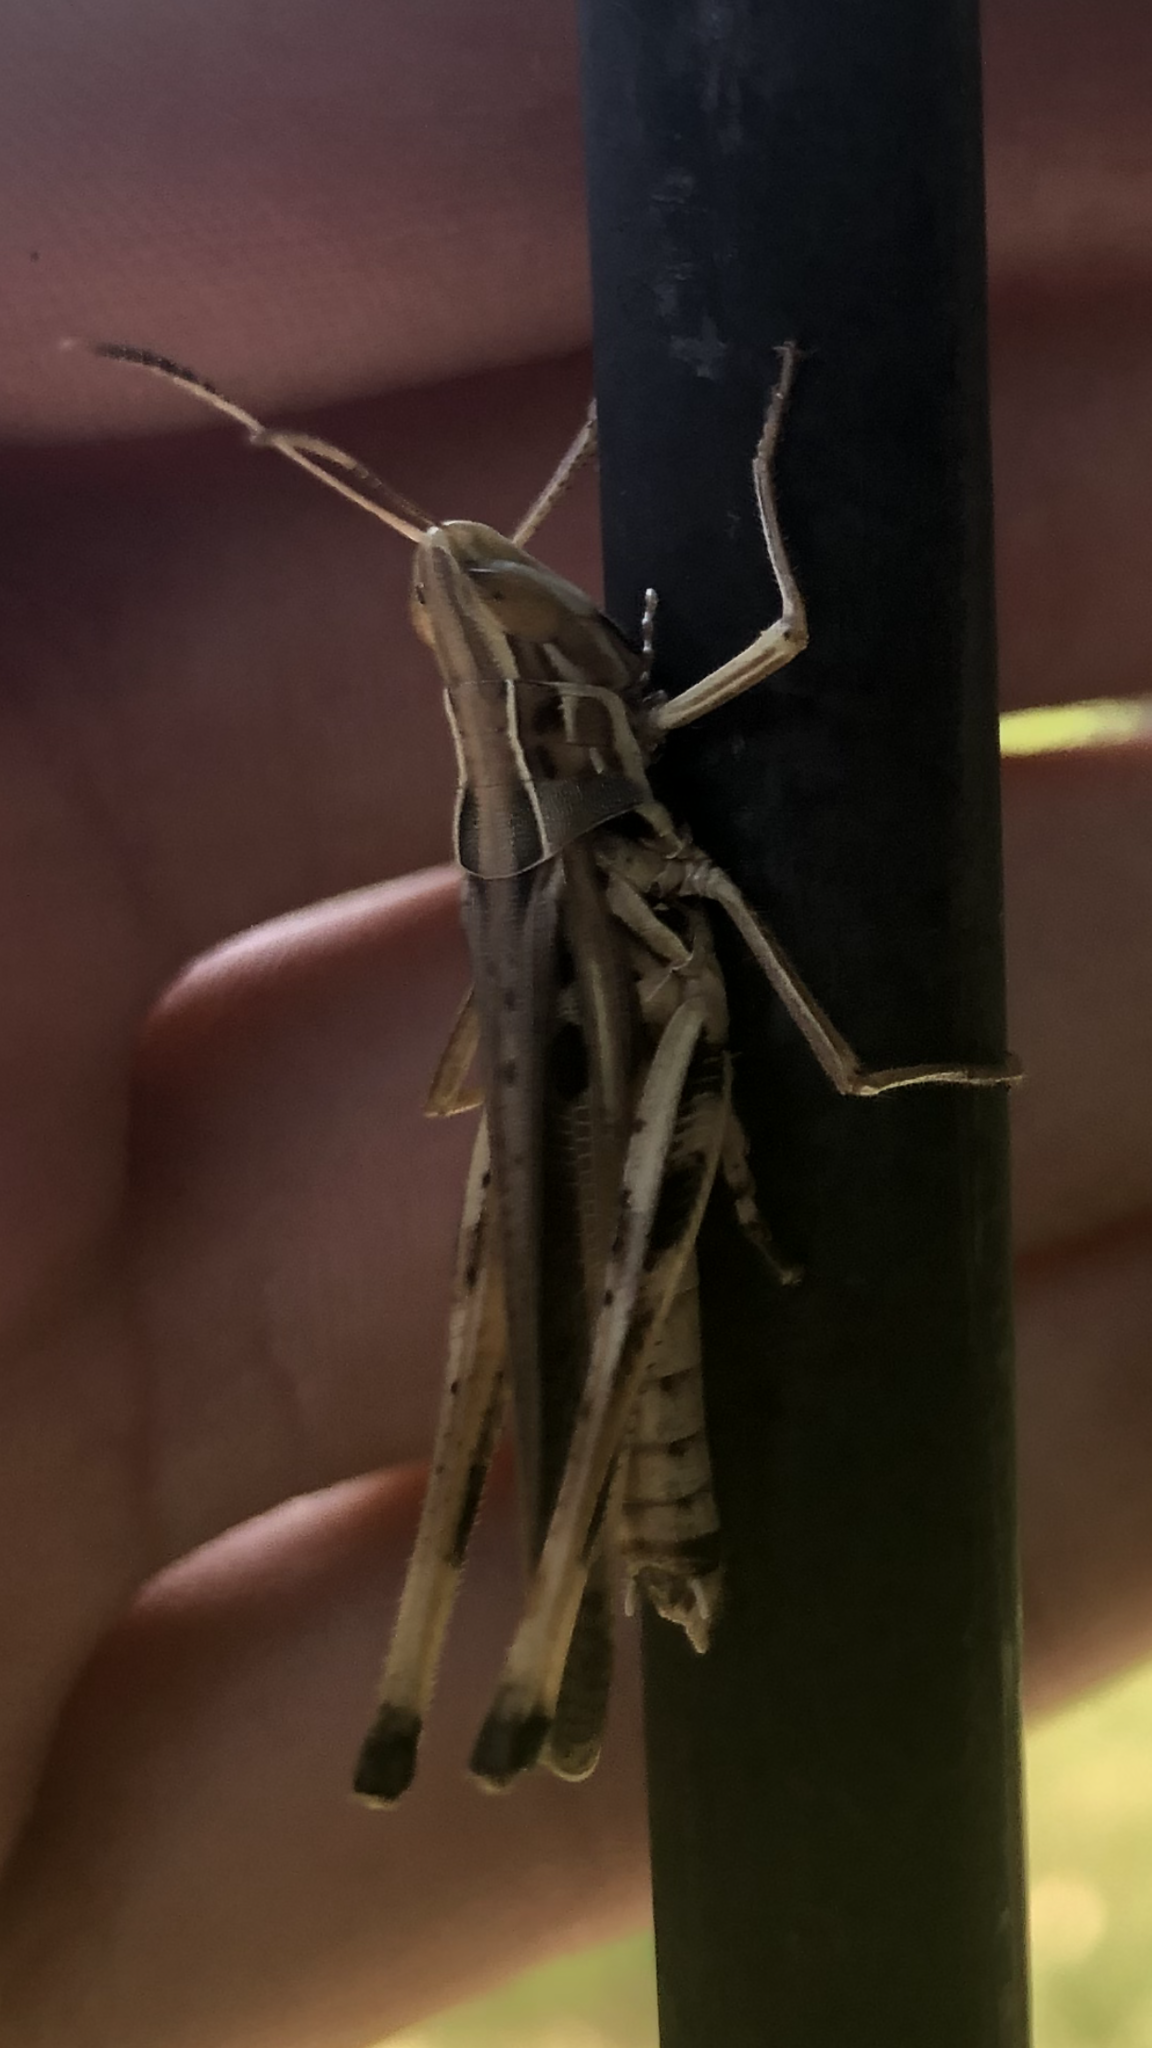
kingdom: Animalia
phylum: Arthropoda
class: Insecta
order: Orthoptera
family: Acrididae
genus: Syrbula
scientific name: Syrbula admirabilis
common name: Handsome grasshopper
